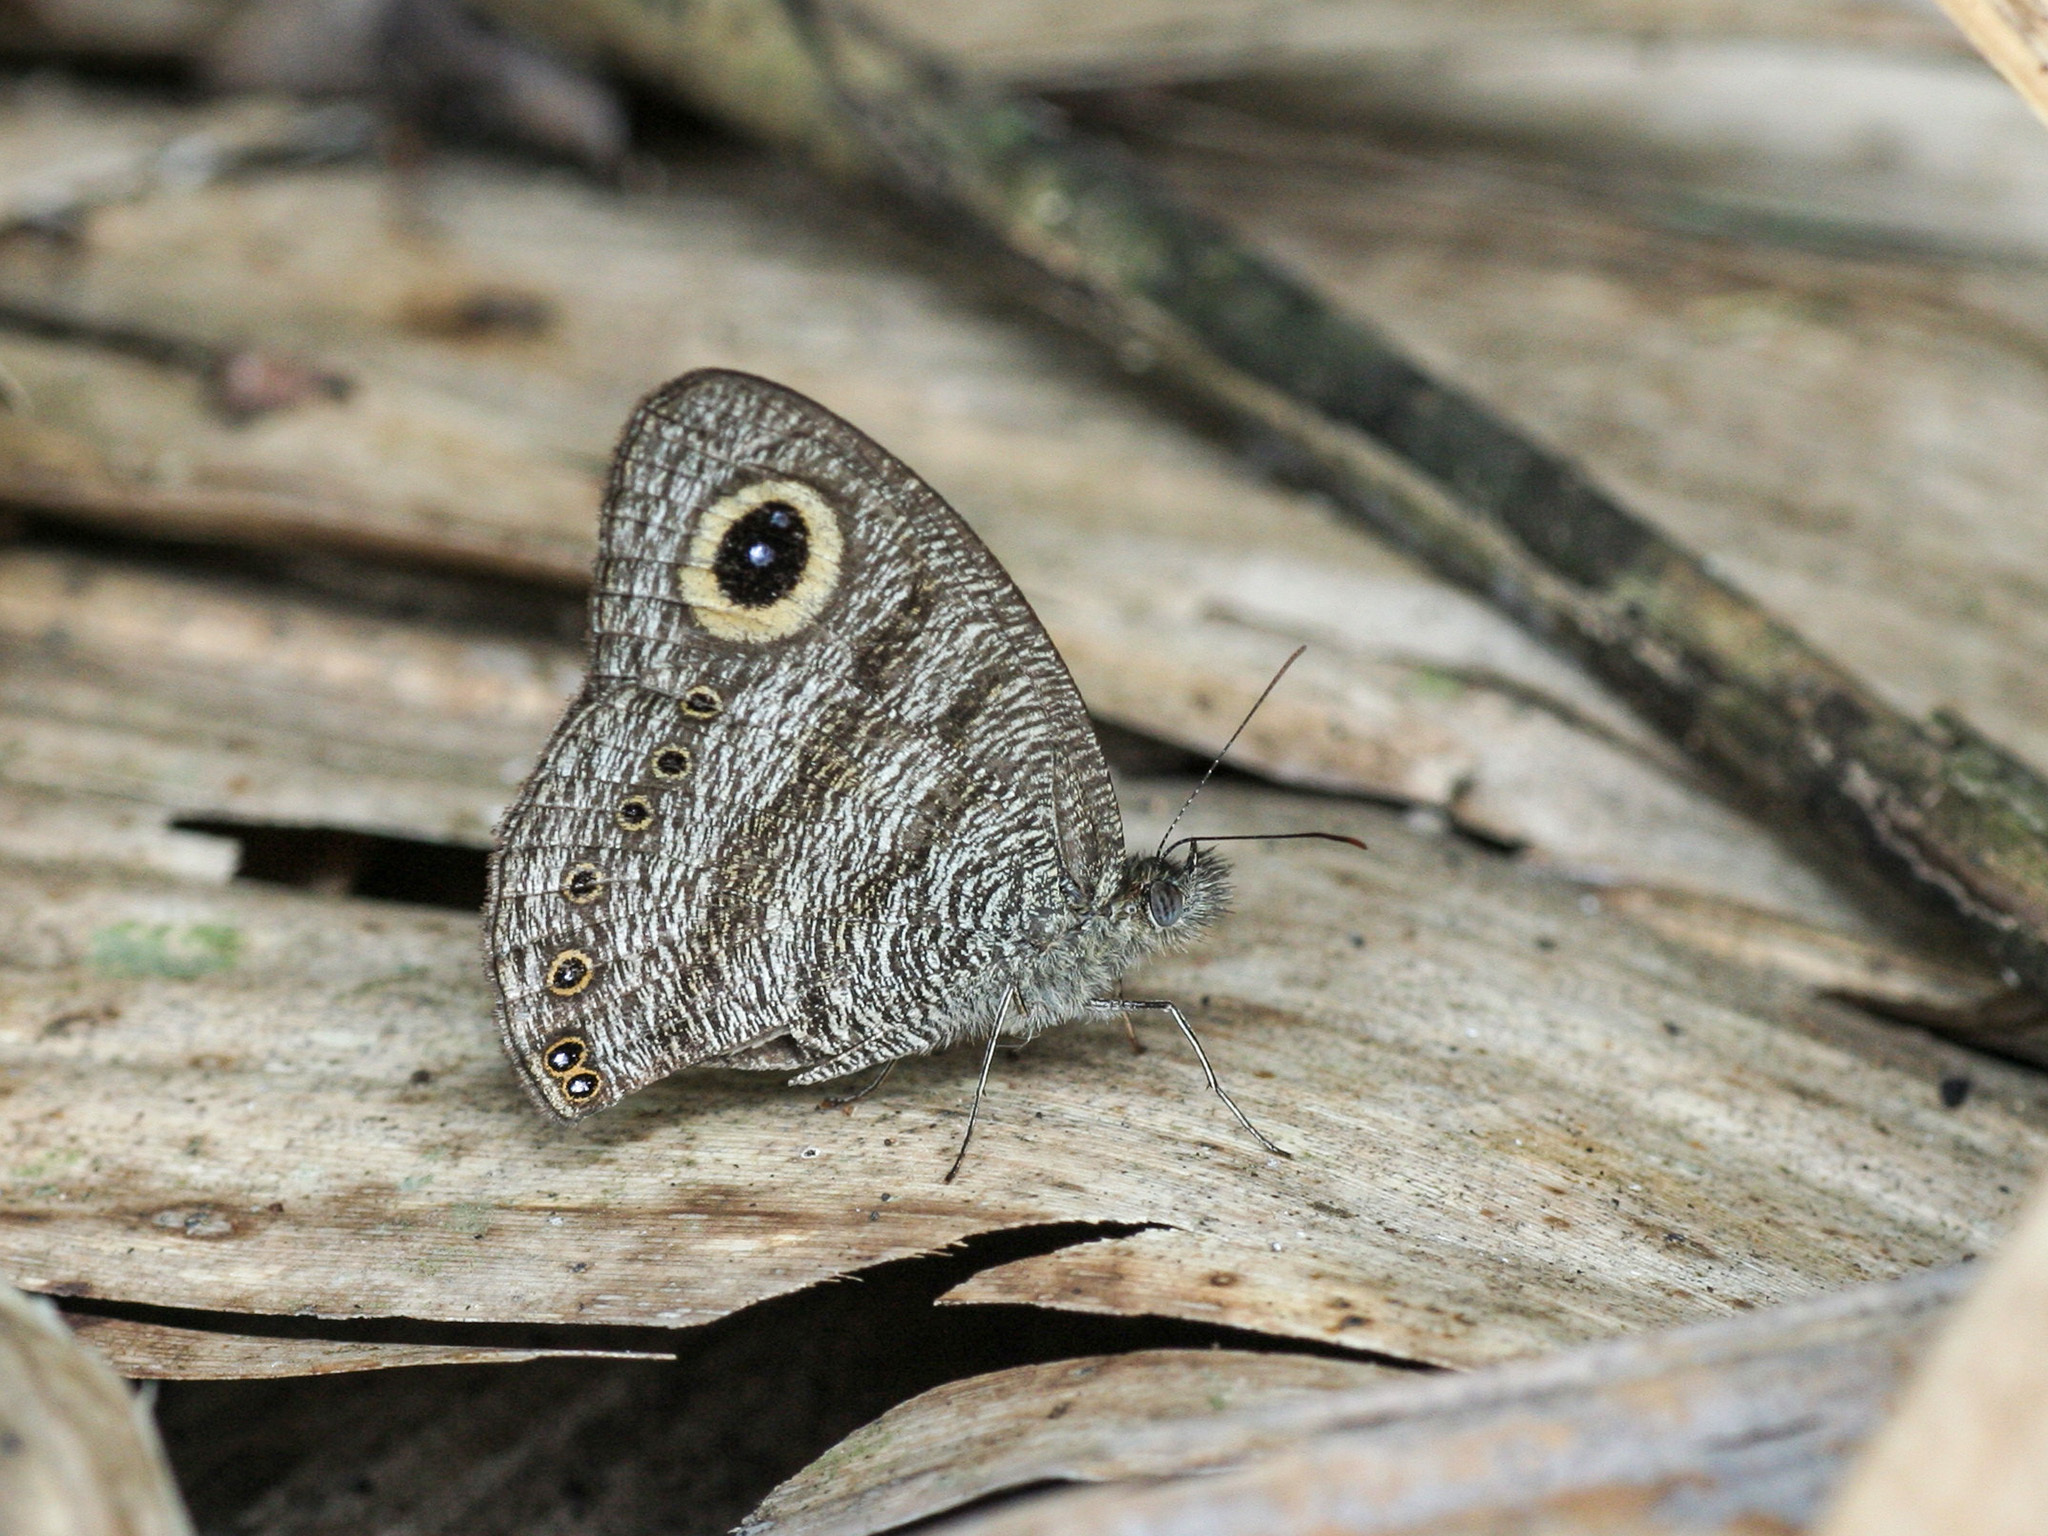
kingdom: Animalia
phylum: Arthropoda
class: Insecta
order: Lepidoptera
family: Nymphalidae
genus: Ypthima
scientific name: Ypthima fasciata
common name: Malayan six-ring
